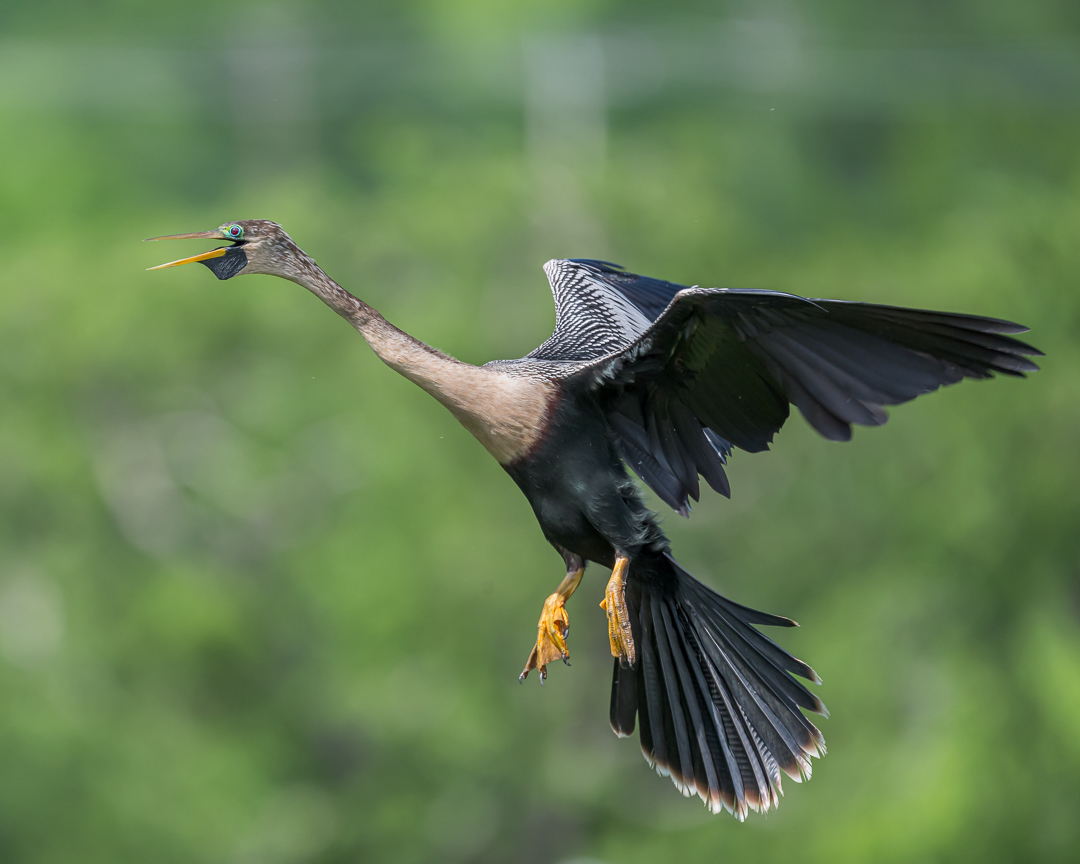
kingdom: Animalia
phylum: Chordata
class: Aves
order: Suliformes
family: Anhingidae
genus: Anhinga
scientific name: Anhinga anhinga
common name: Anhinga
